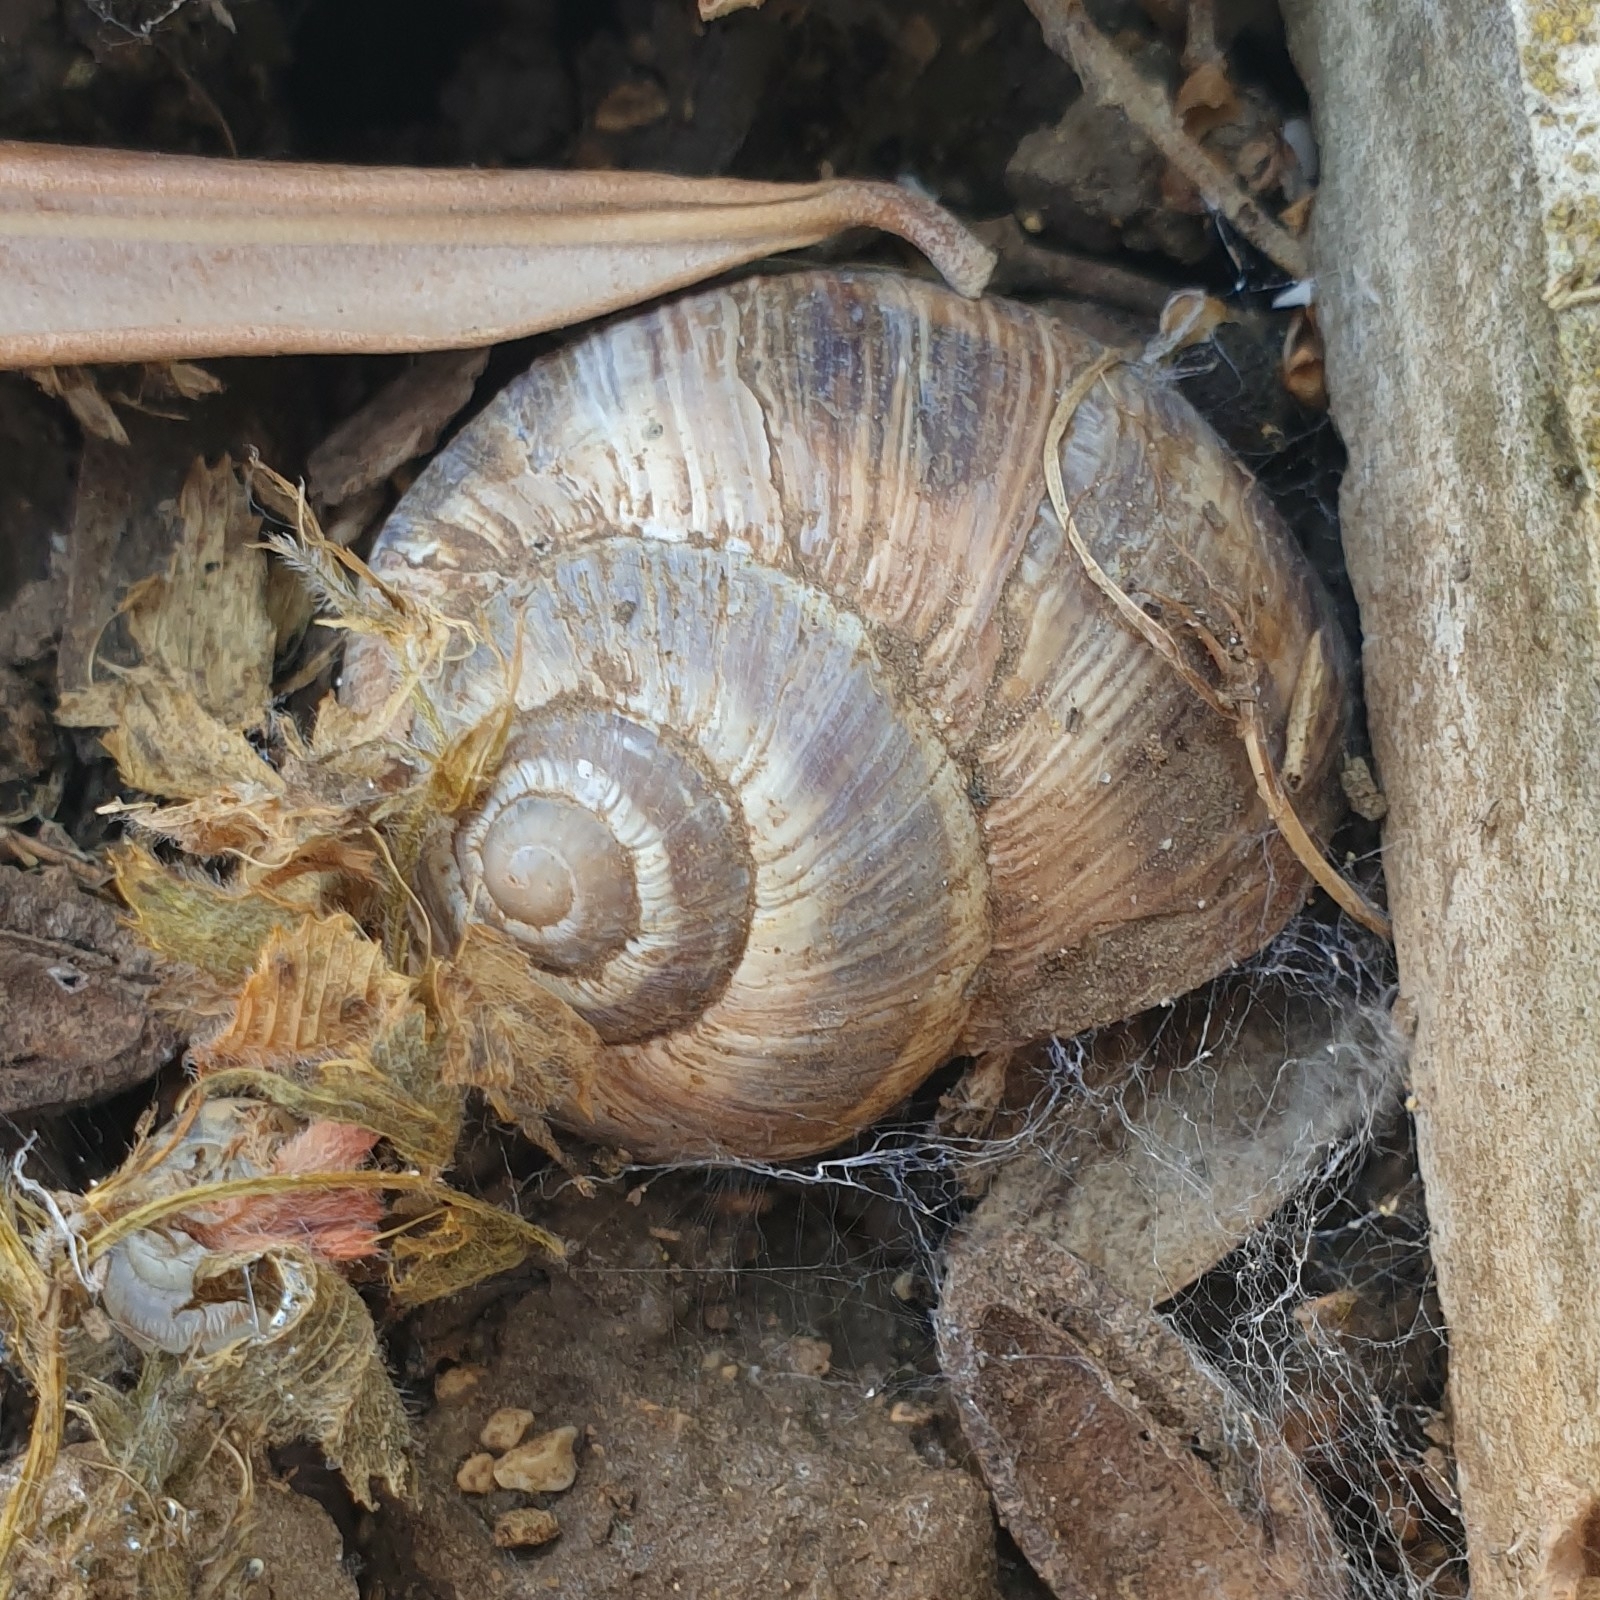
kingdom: Animalia
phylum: Mollusca
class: Gastropoda
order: Stylommatophora
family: Helicidae
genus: Helix
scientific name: Helix cincta
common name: Greek banded snail
